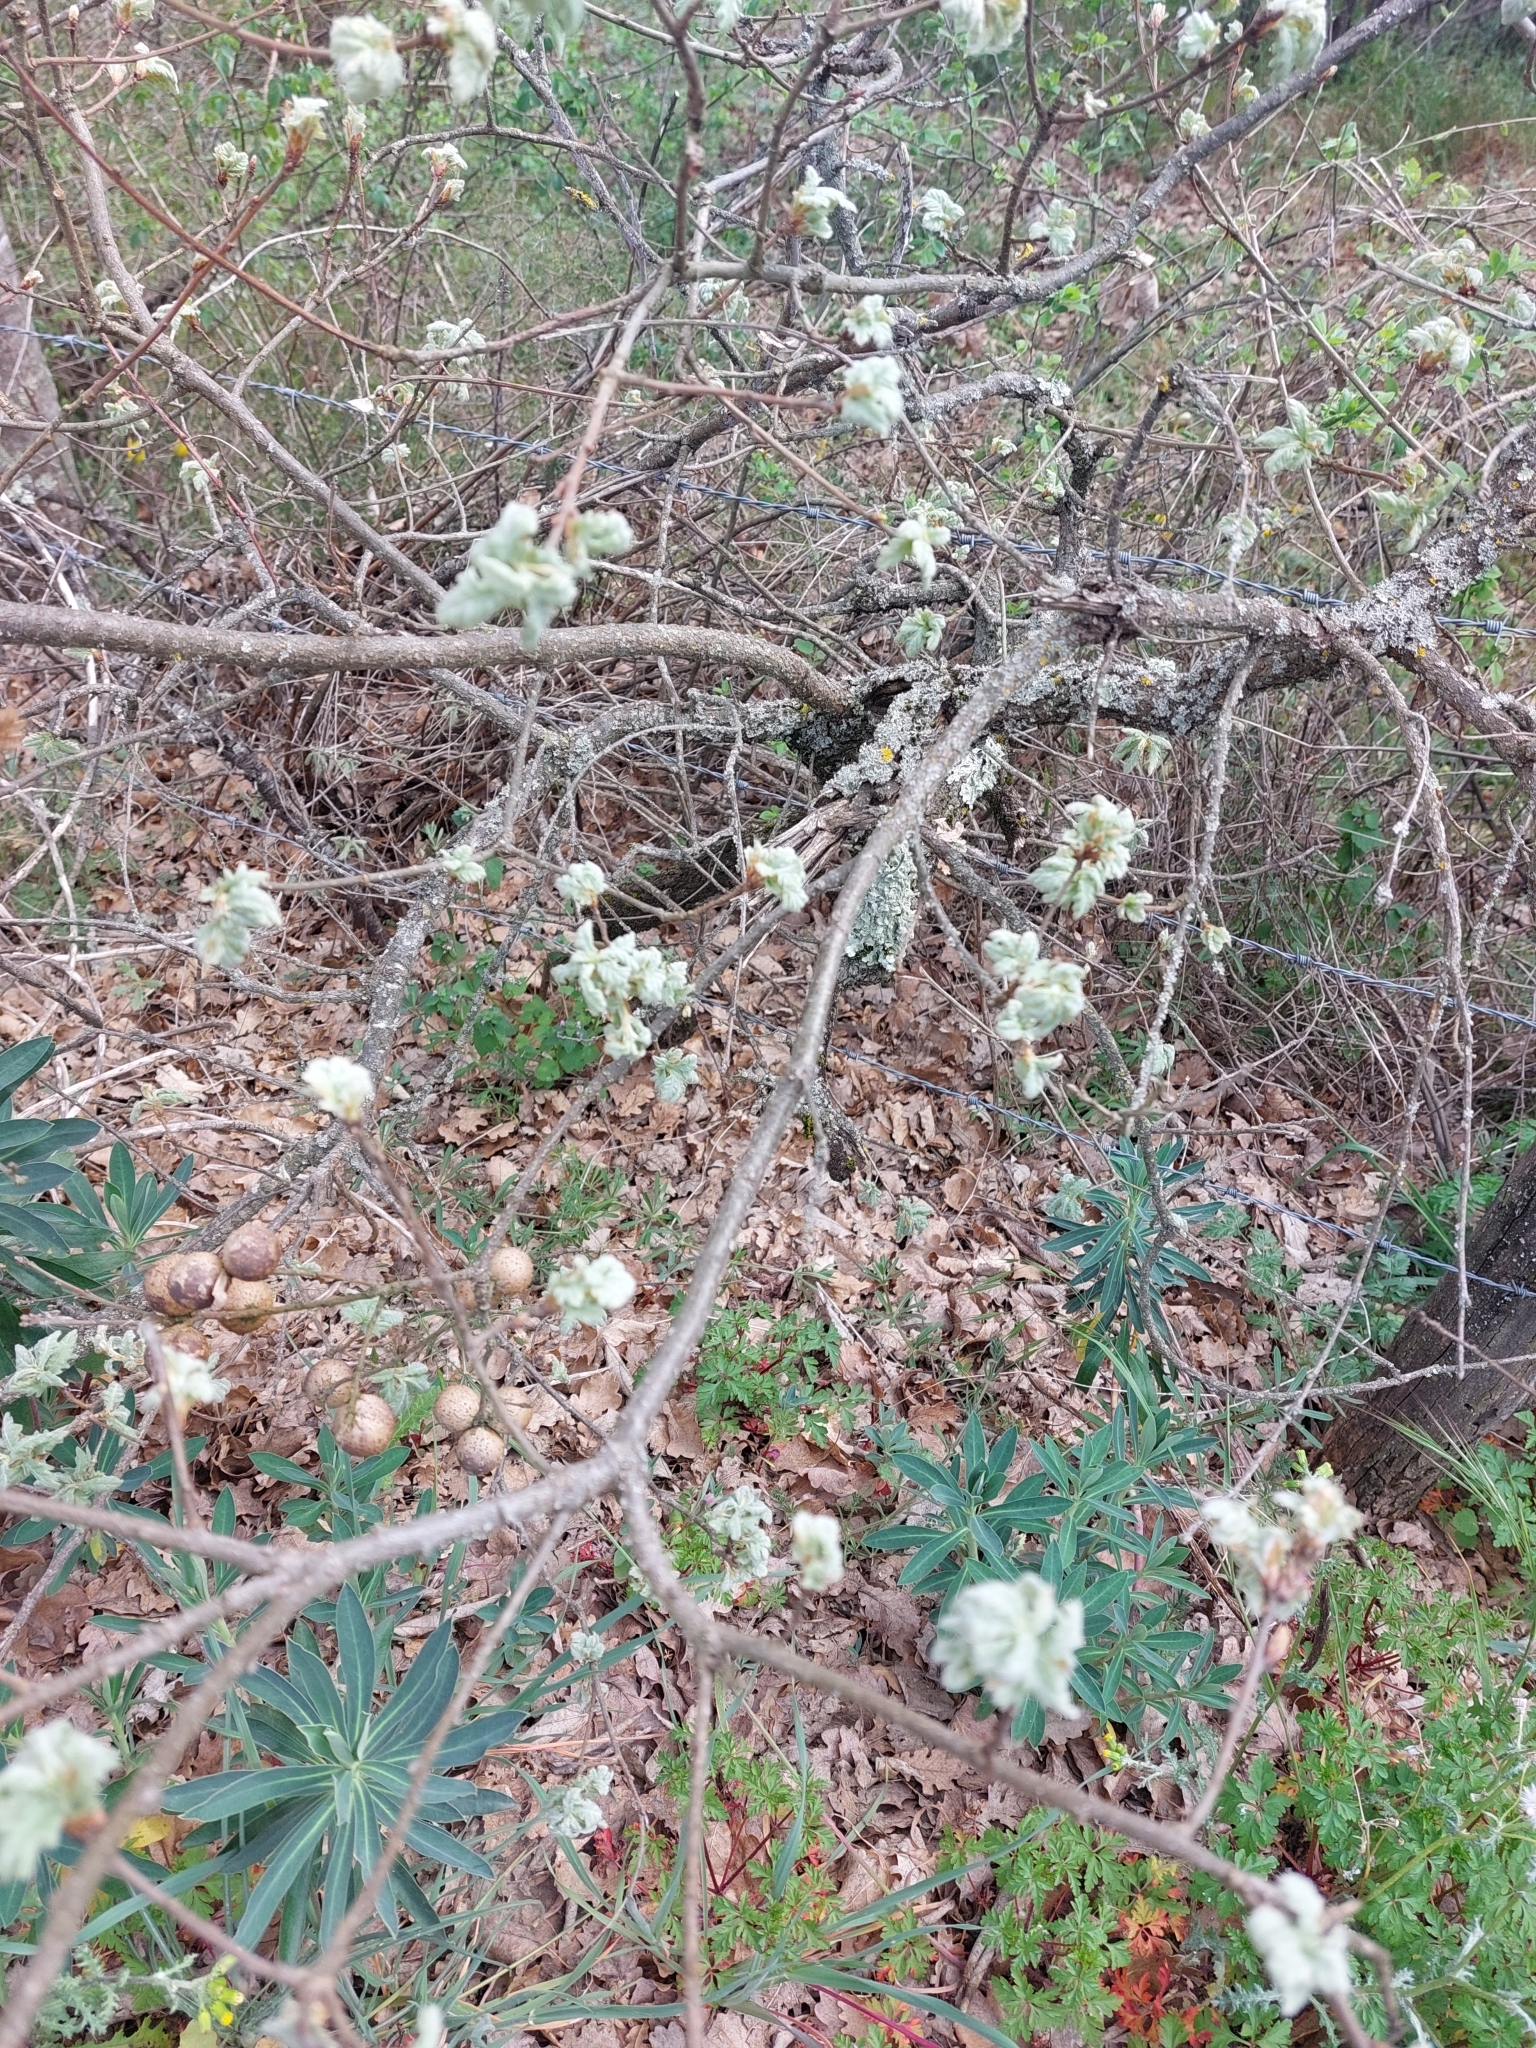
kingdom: Animalia
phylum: Arthropoda
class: Insecta
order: Hymenoptera
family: Cynipidae
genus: Andricus
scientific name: Andricus kollari
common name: Marble gall
